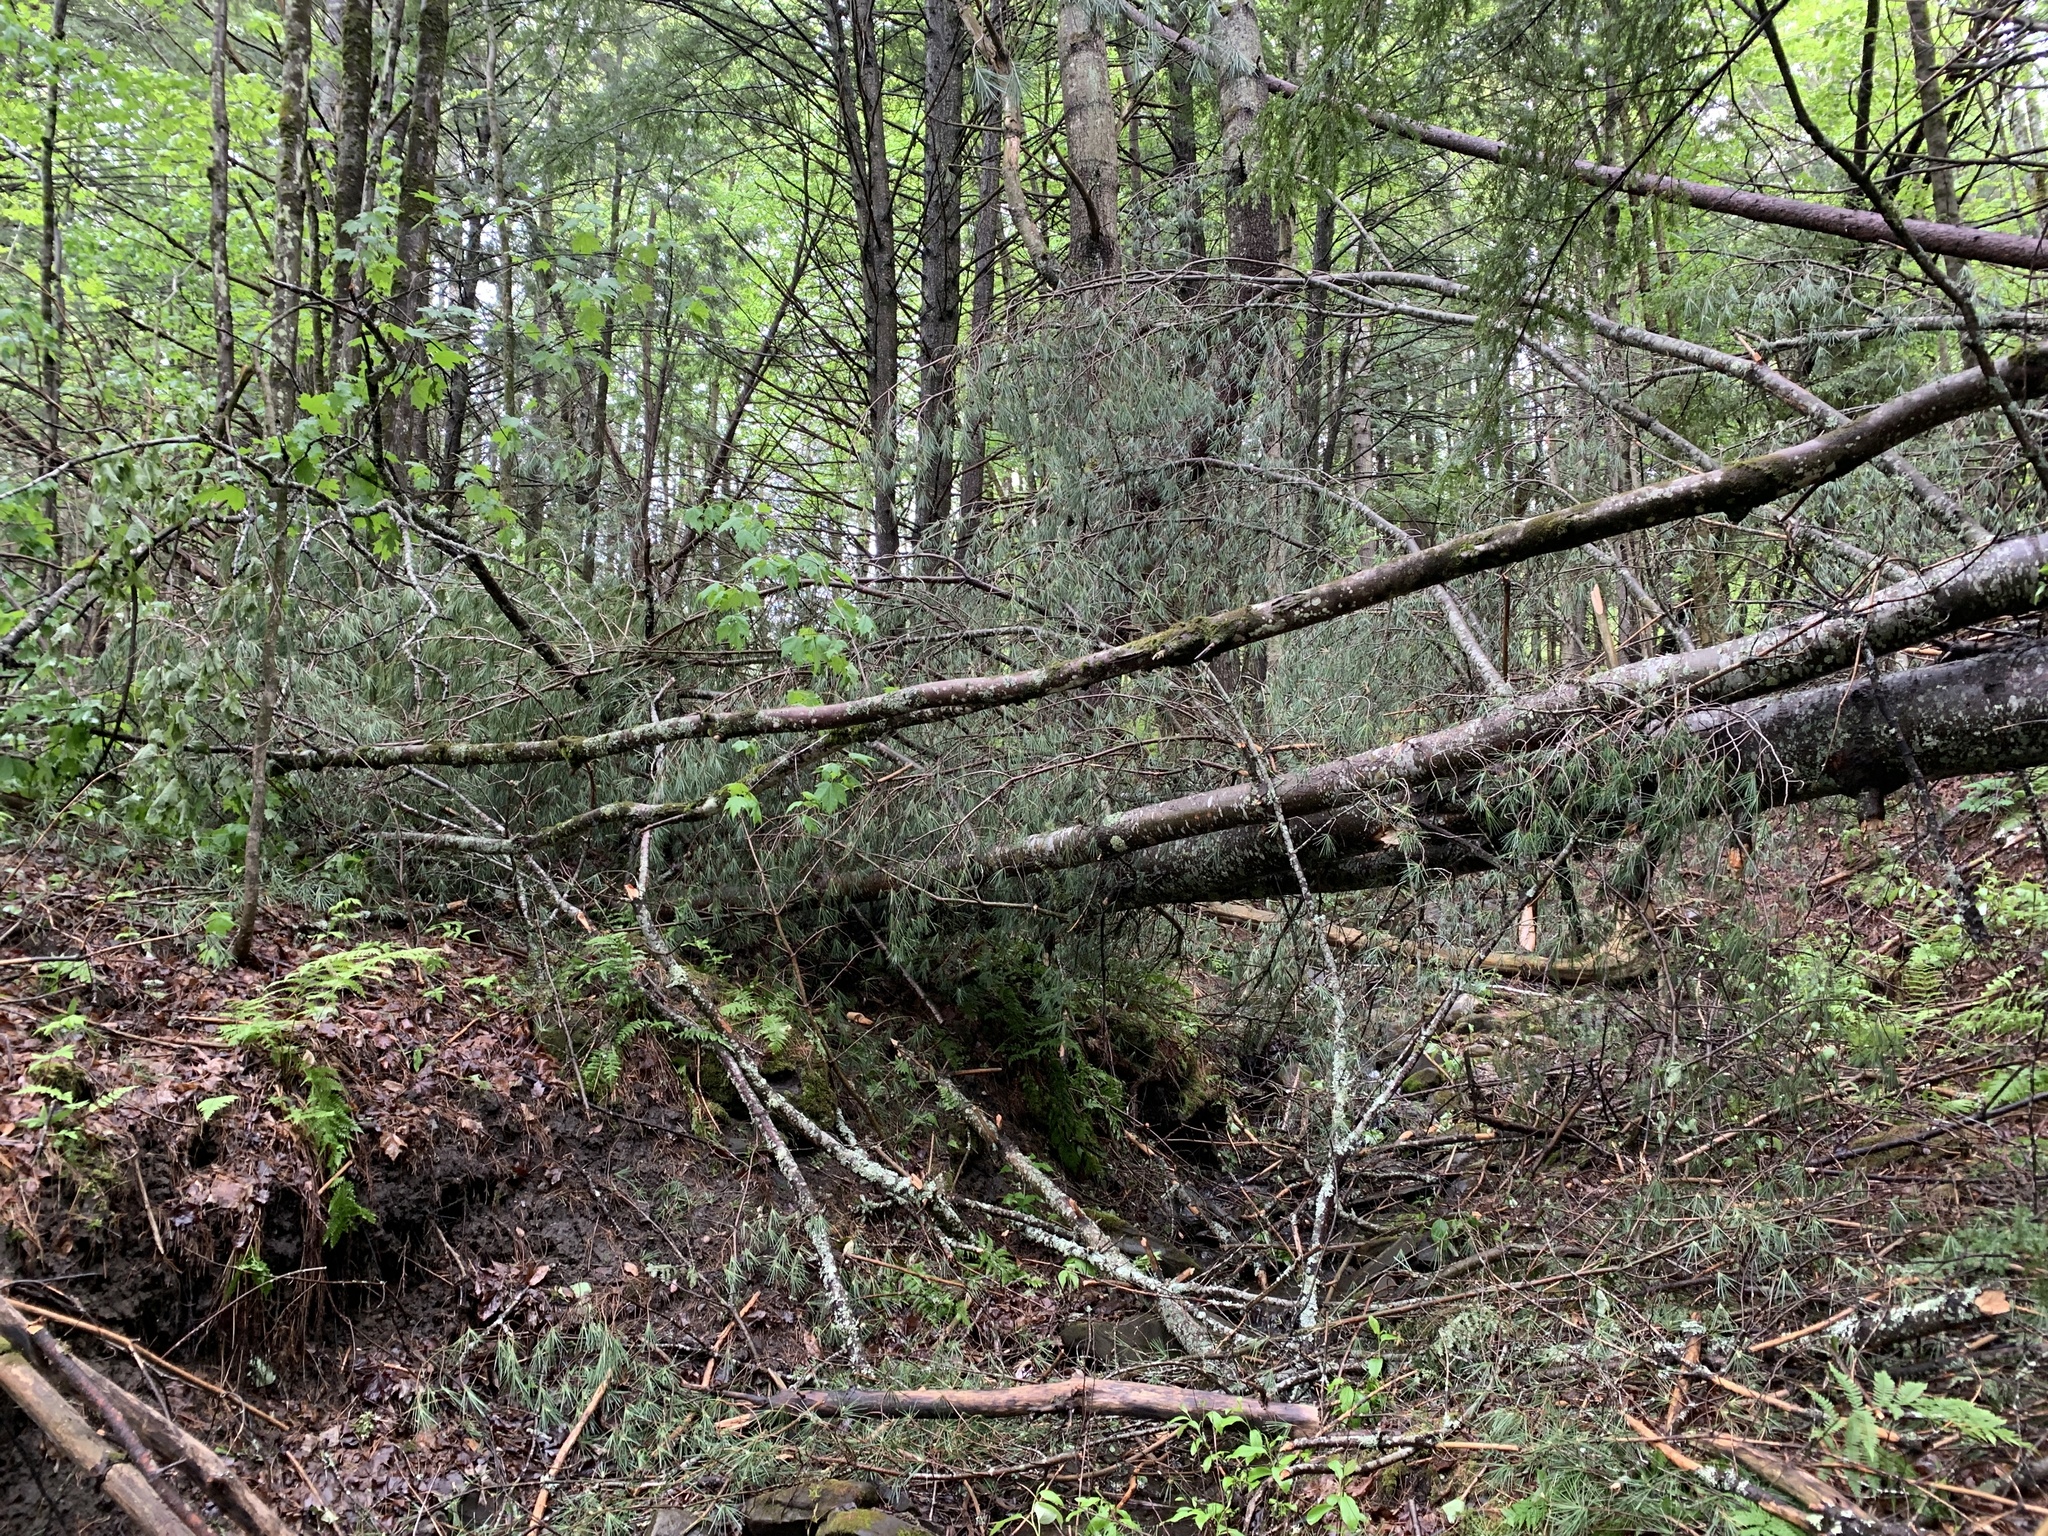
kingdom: Plantae
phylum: Tracheophyta
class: Pinopsida
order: Pinales
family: Pinaceae
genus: Pinus
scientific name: Pinus strobus
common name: Weymouth pine
